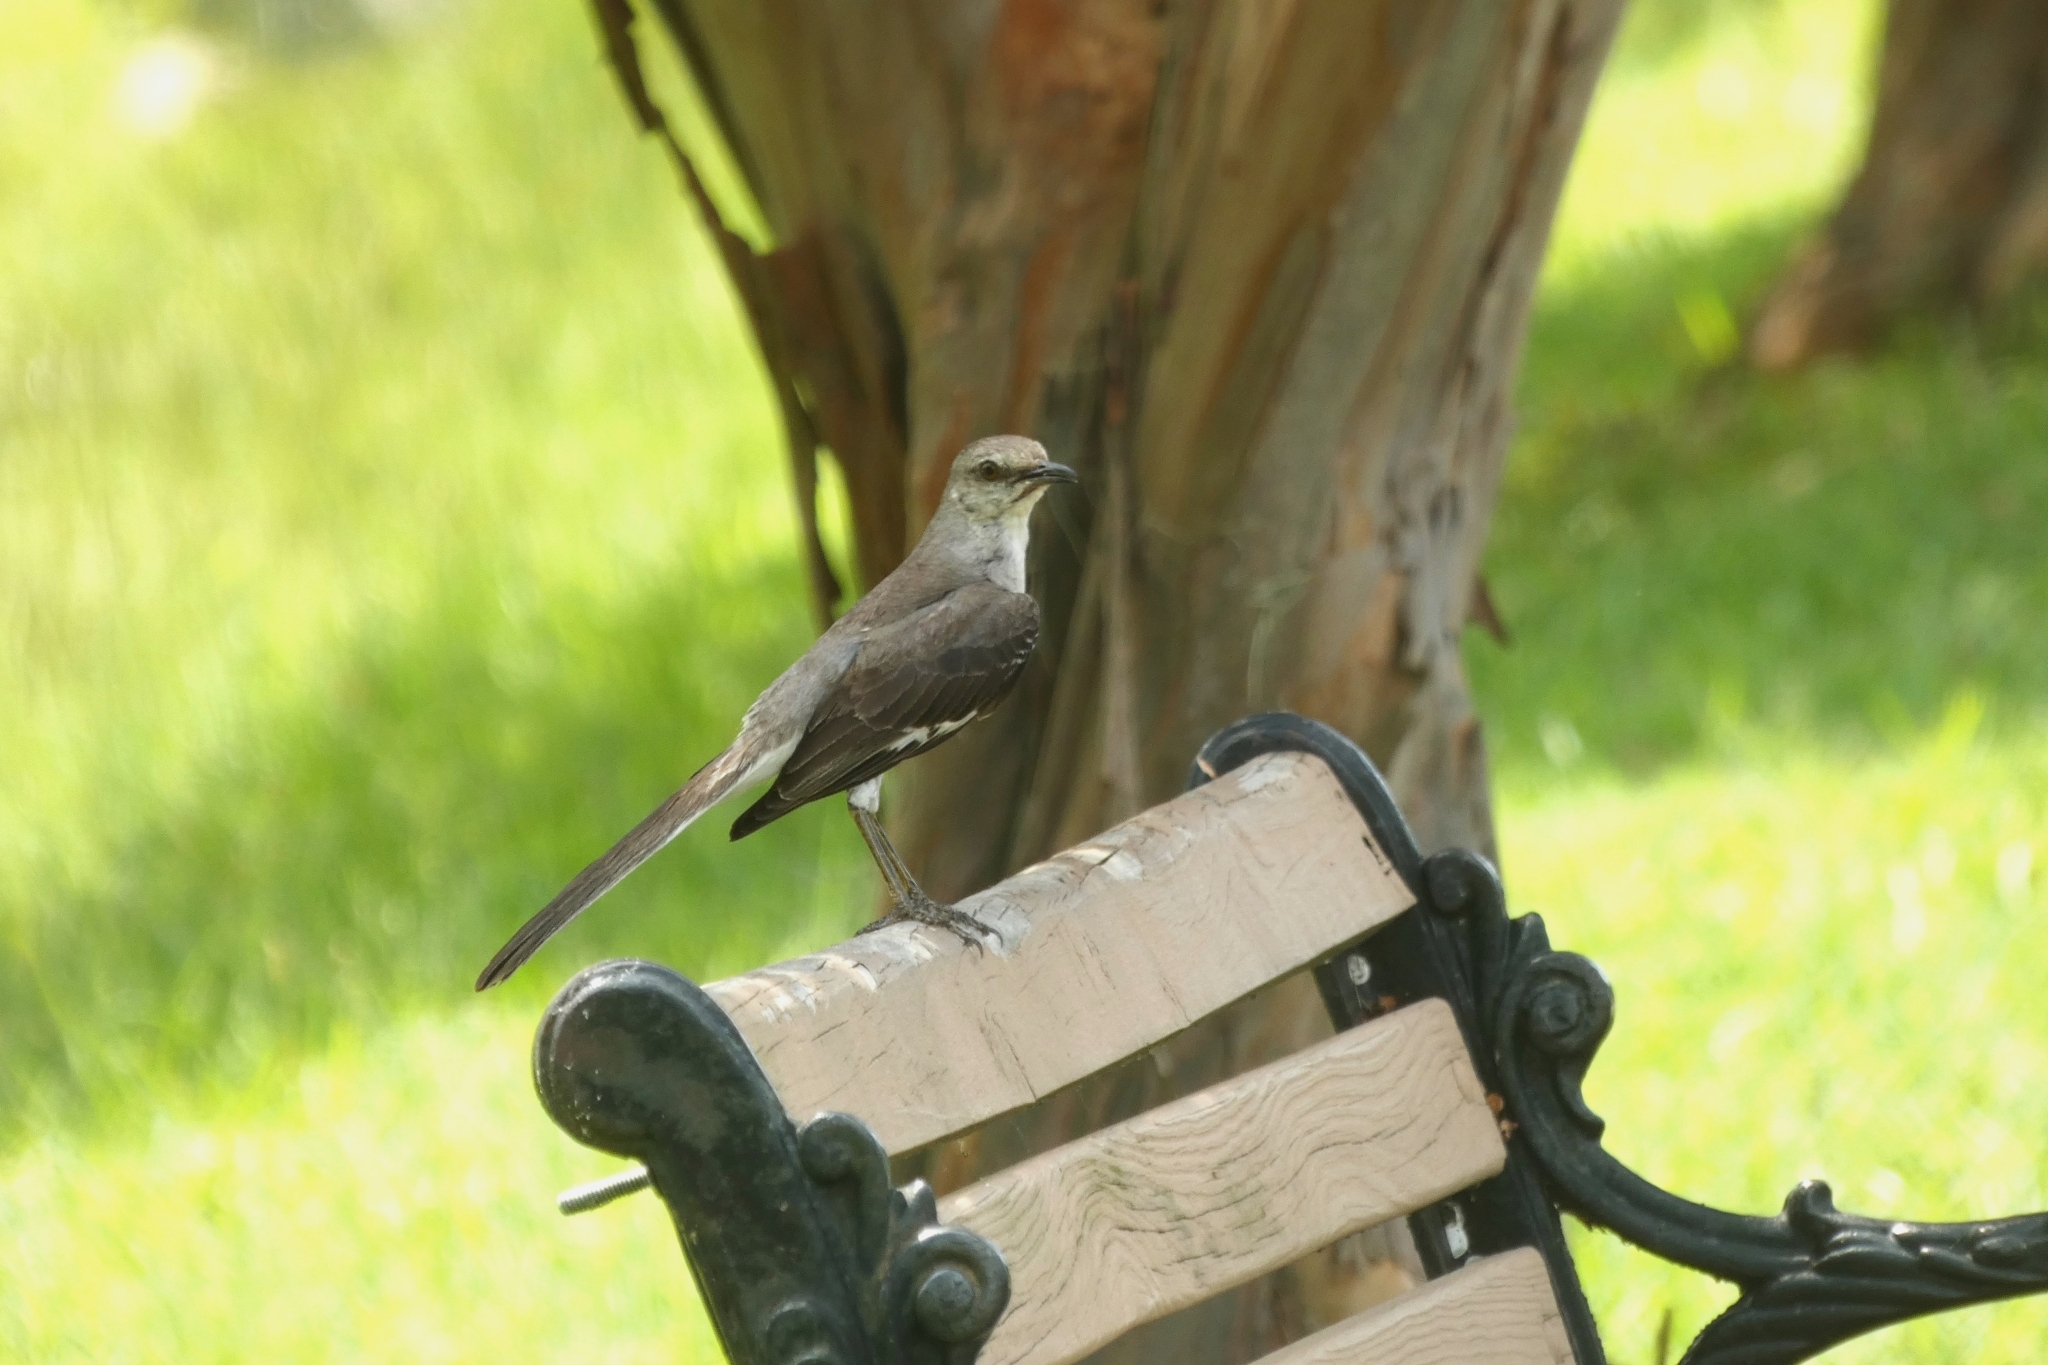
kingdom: Animalia
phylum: Chordata
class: Aves
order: Passeriformes
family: Mimidae
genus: Mimus
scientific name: Mimus polyglottos
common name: Northern mockingbird
